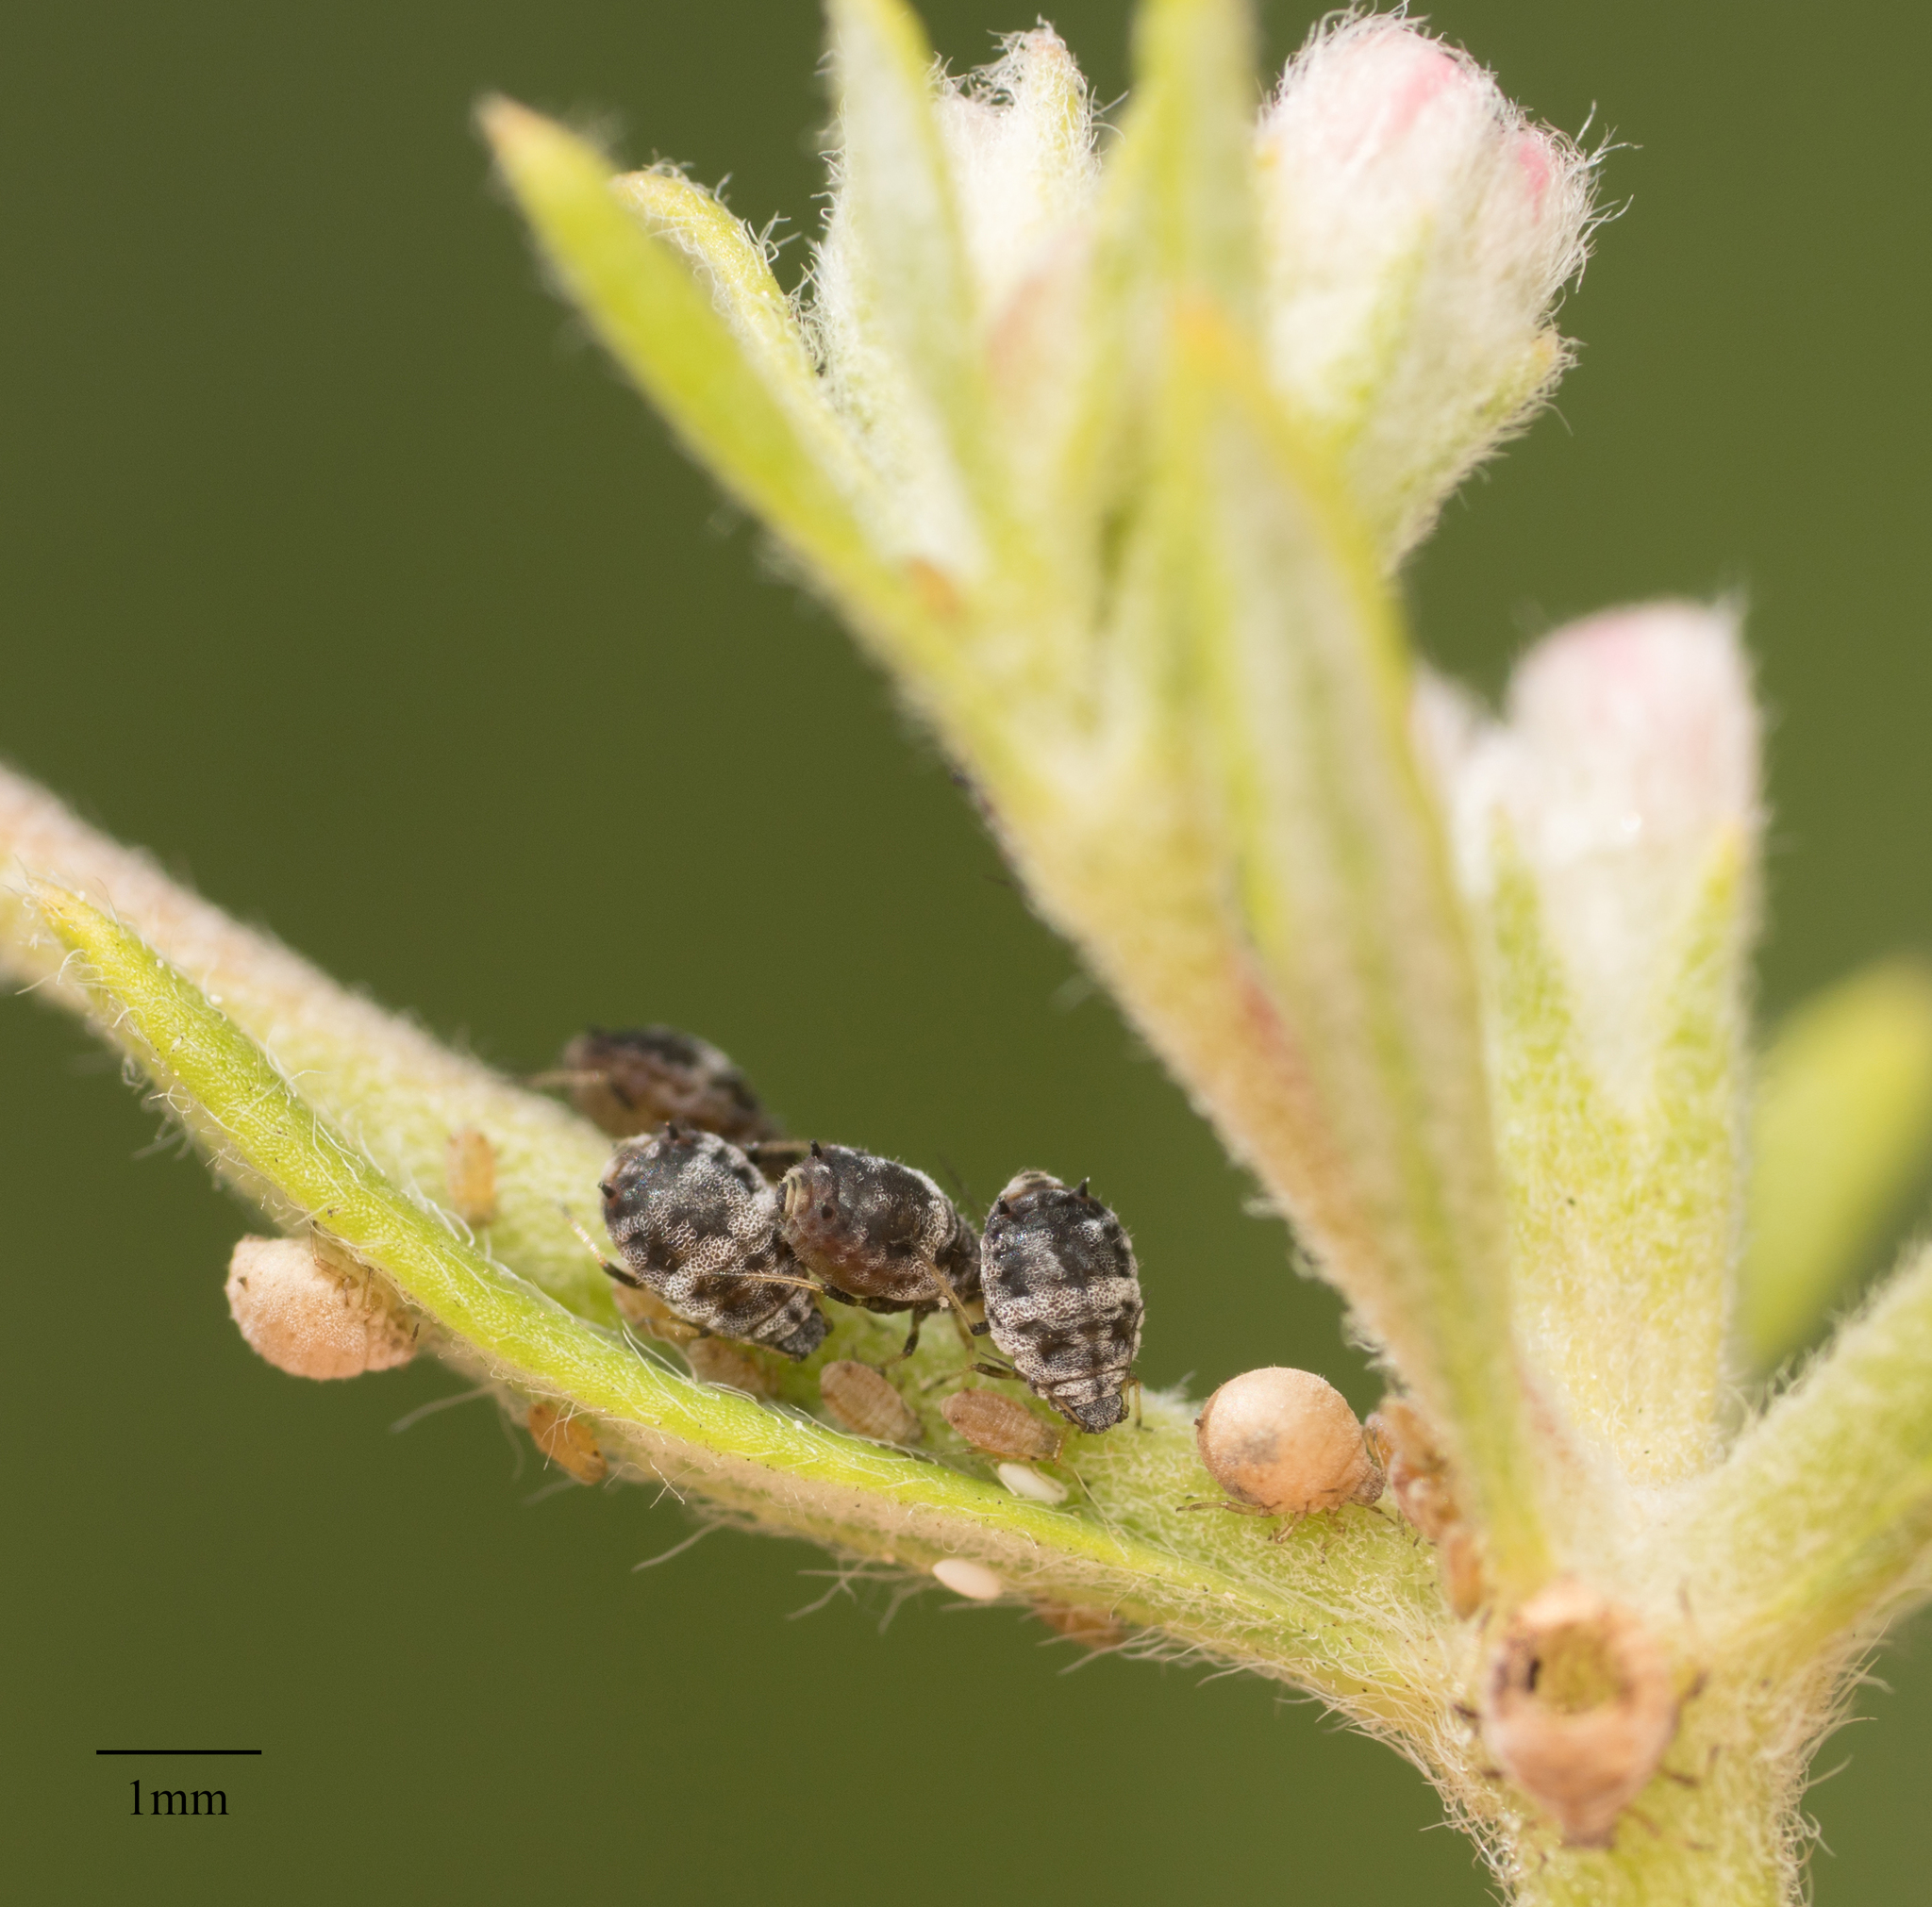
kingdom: Animalia
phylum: Arthropoda
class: Insecta
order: Hemiptera
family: Aphididae
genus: Braggia
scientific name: Braggia eriogoni
